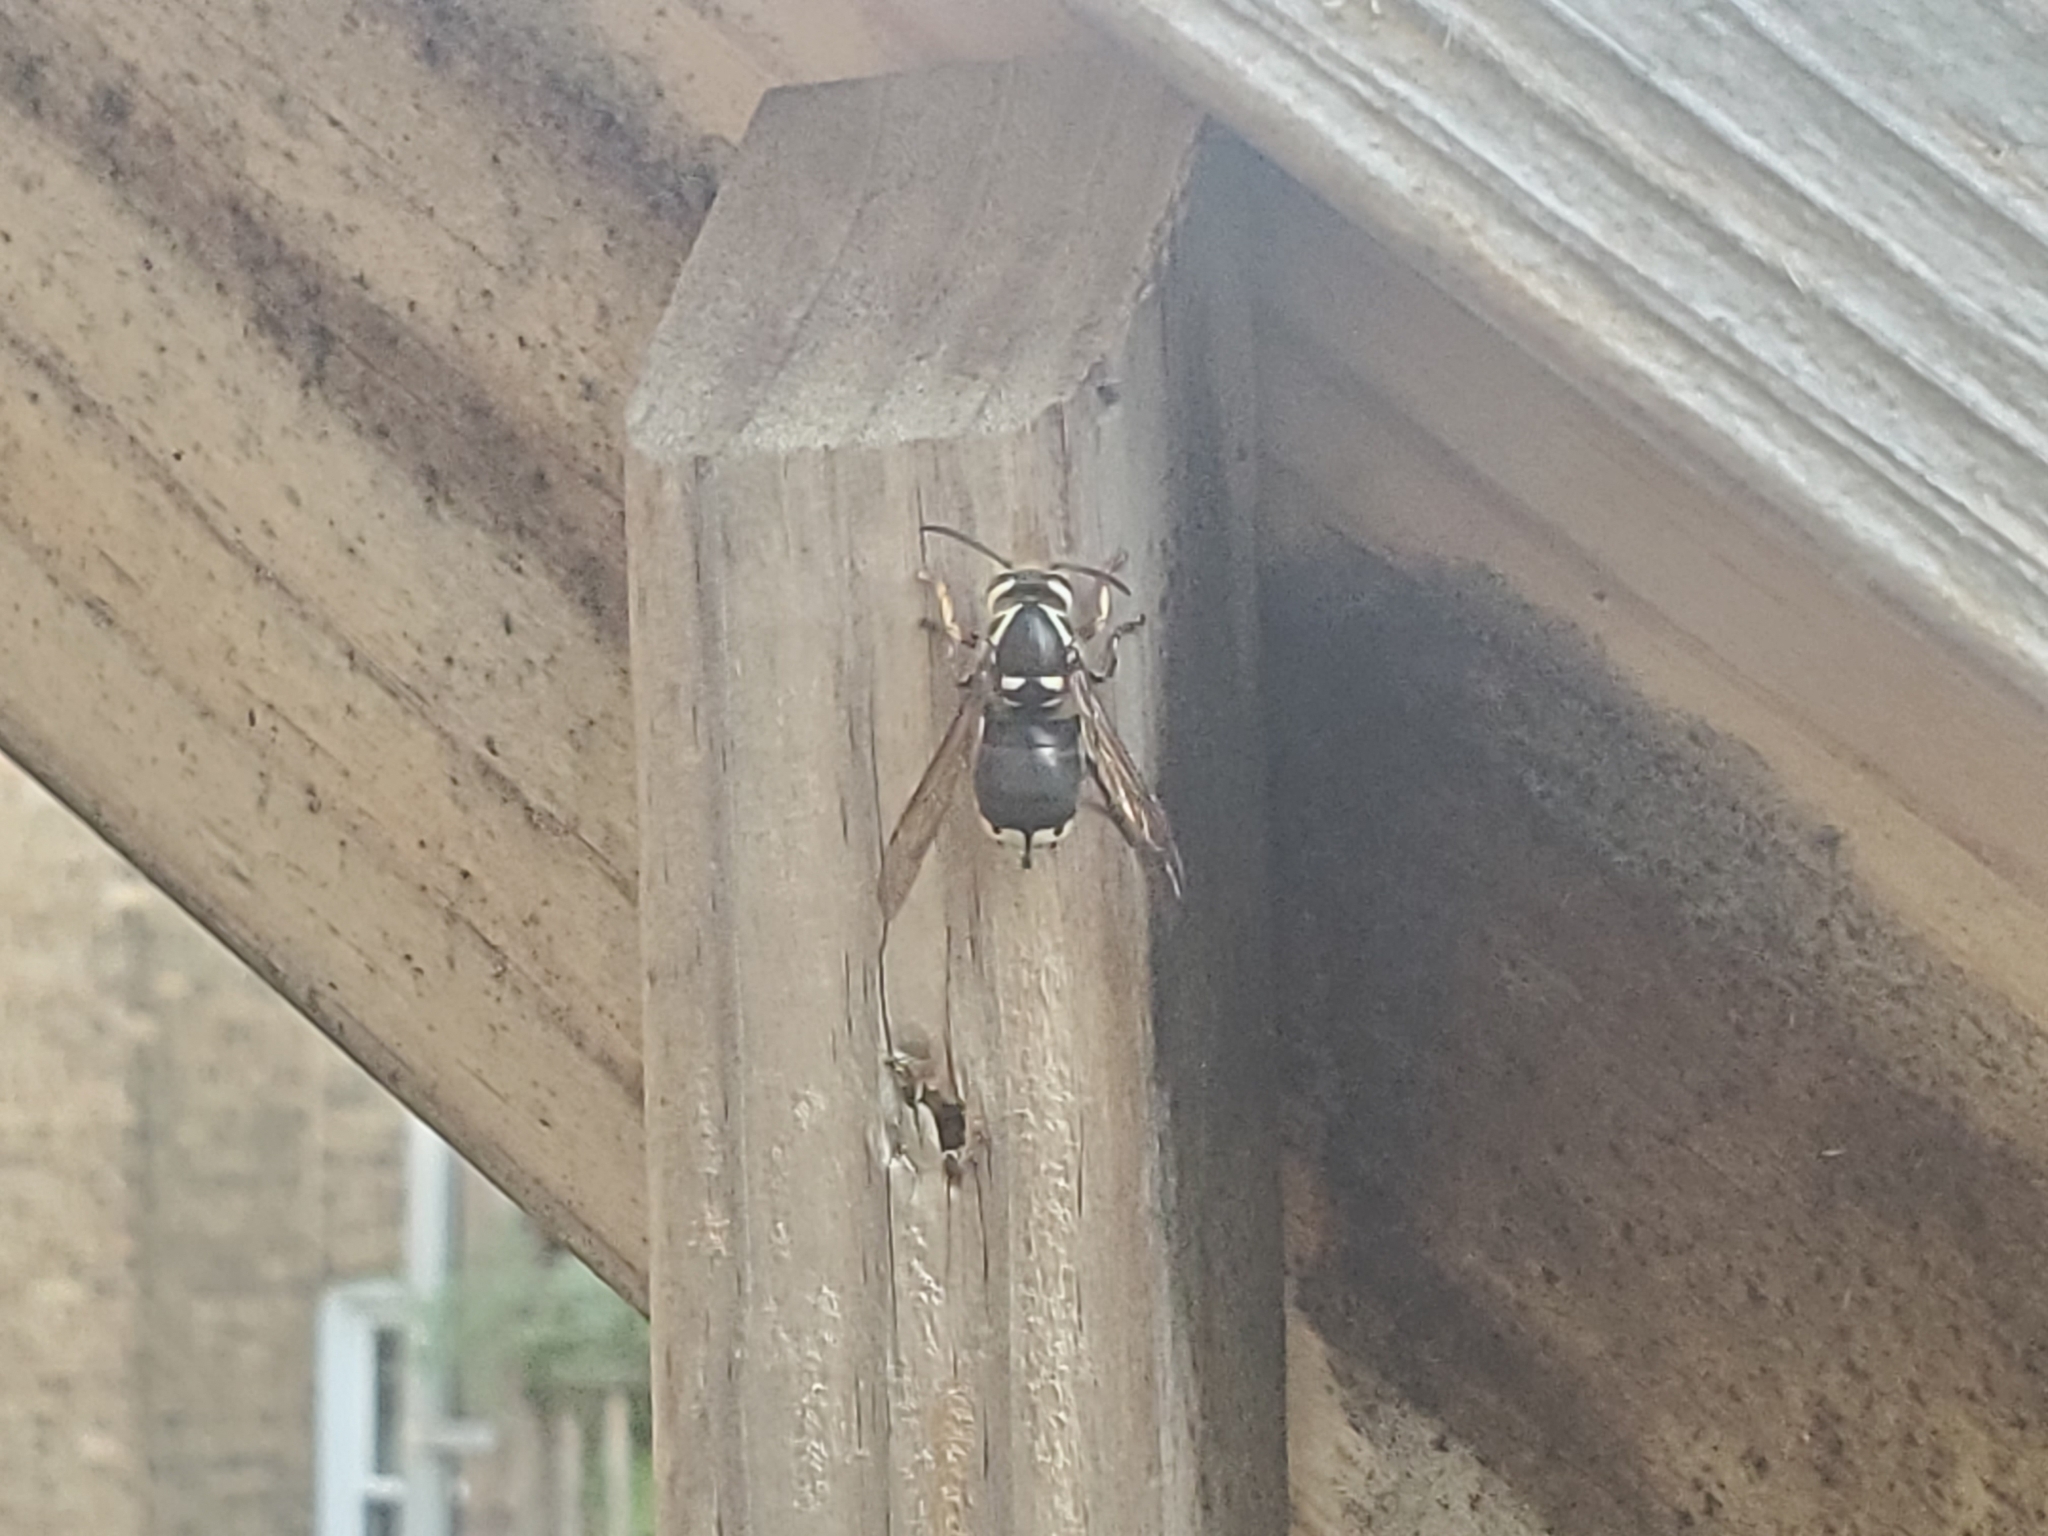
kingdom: Animalia
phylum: Arthropoda
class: Insecta
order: Hymenoptera
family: Vespidae
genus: Dolichovespula
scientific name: Dolichovespula maculata
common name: Bald-faced hornet
